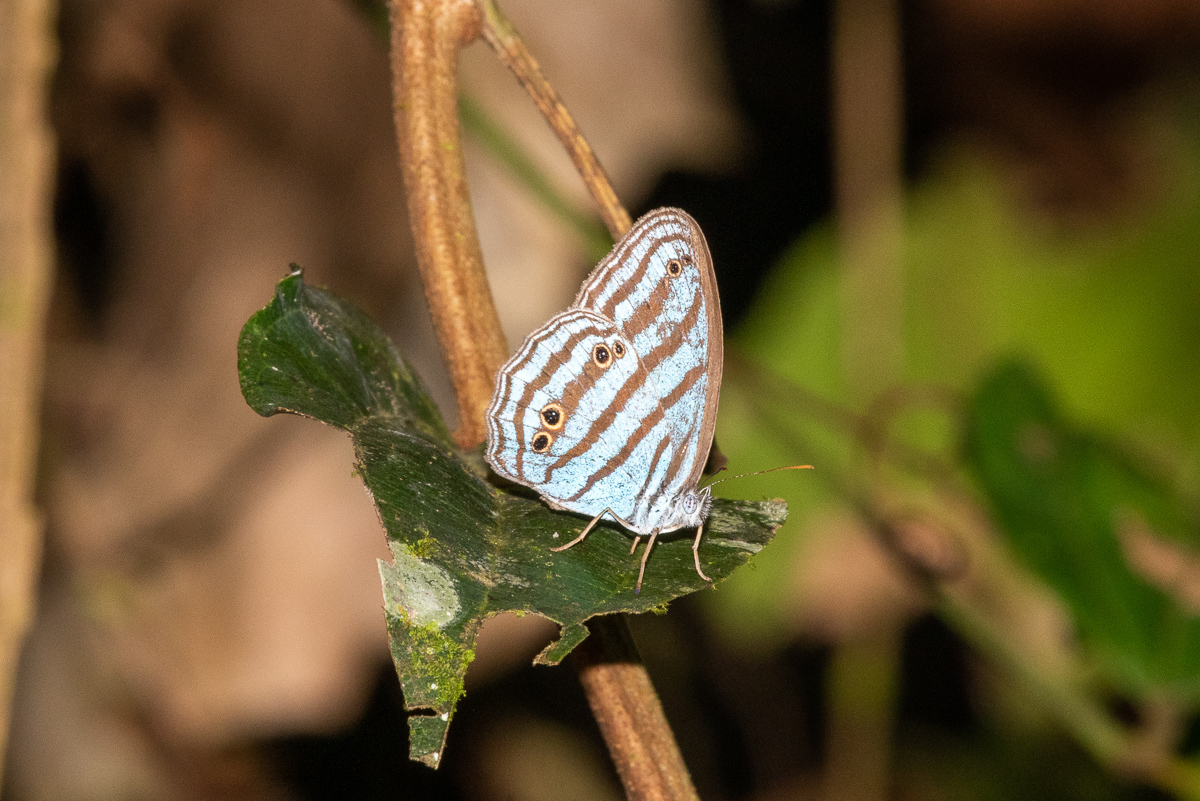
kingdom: Animalia
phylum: Arthropoda
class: Insecta
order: Lepidoptera
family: Nymphalidae
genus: Cepheuptychia
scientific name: Cepheuptychia cephus
